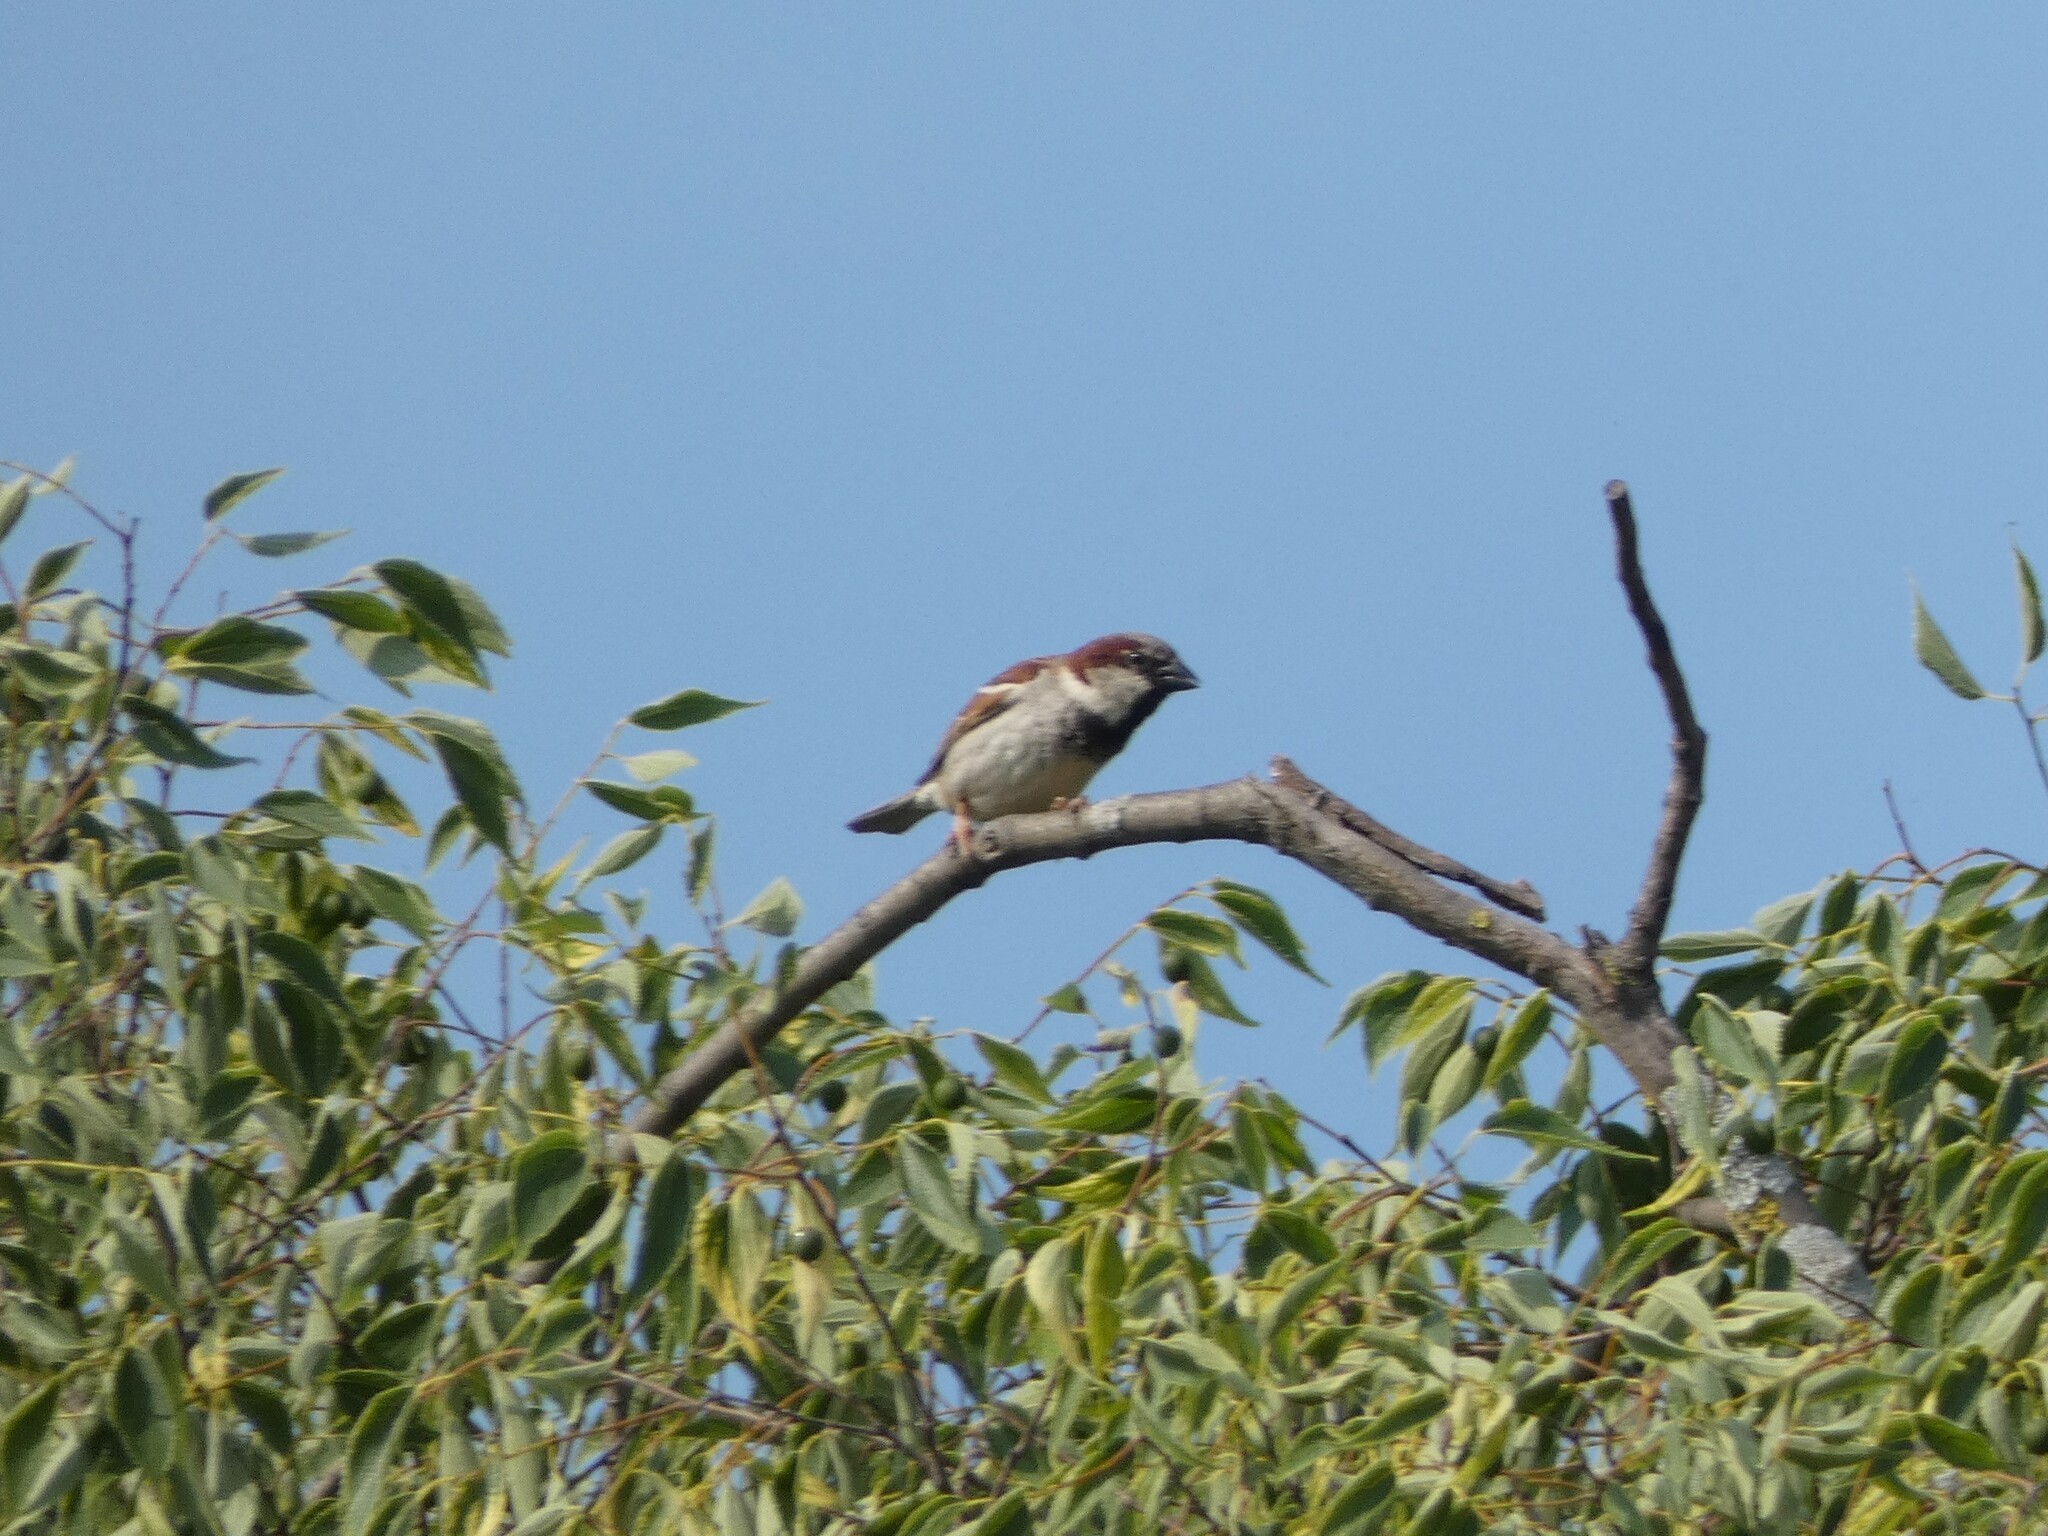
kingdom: Animalia
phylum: Chordata
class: Aves
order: Passeriformes
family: Passeridae
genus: Passer
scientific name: Passer domesticus
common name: House sparrow
